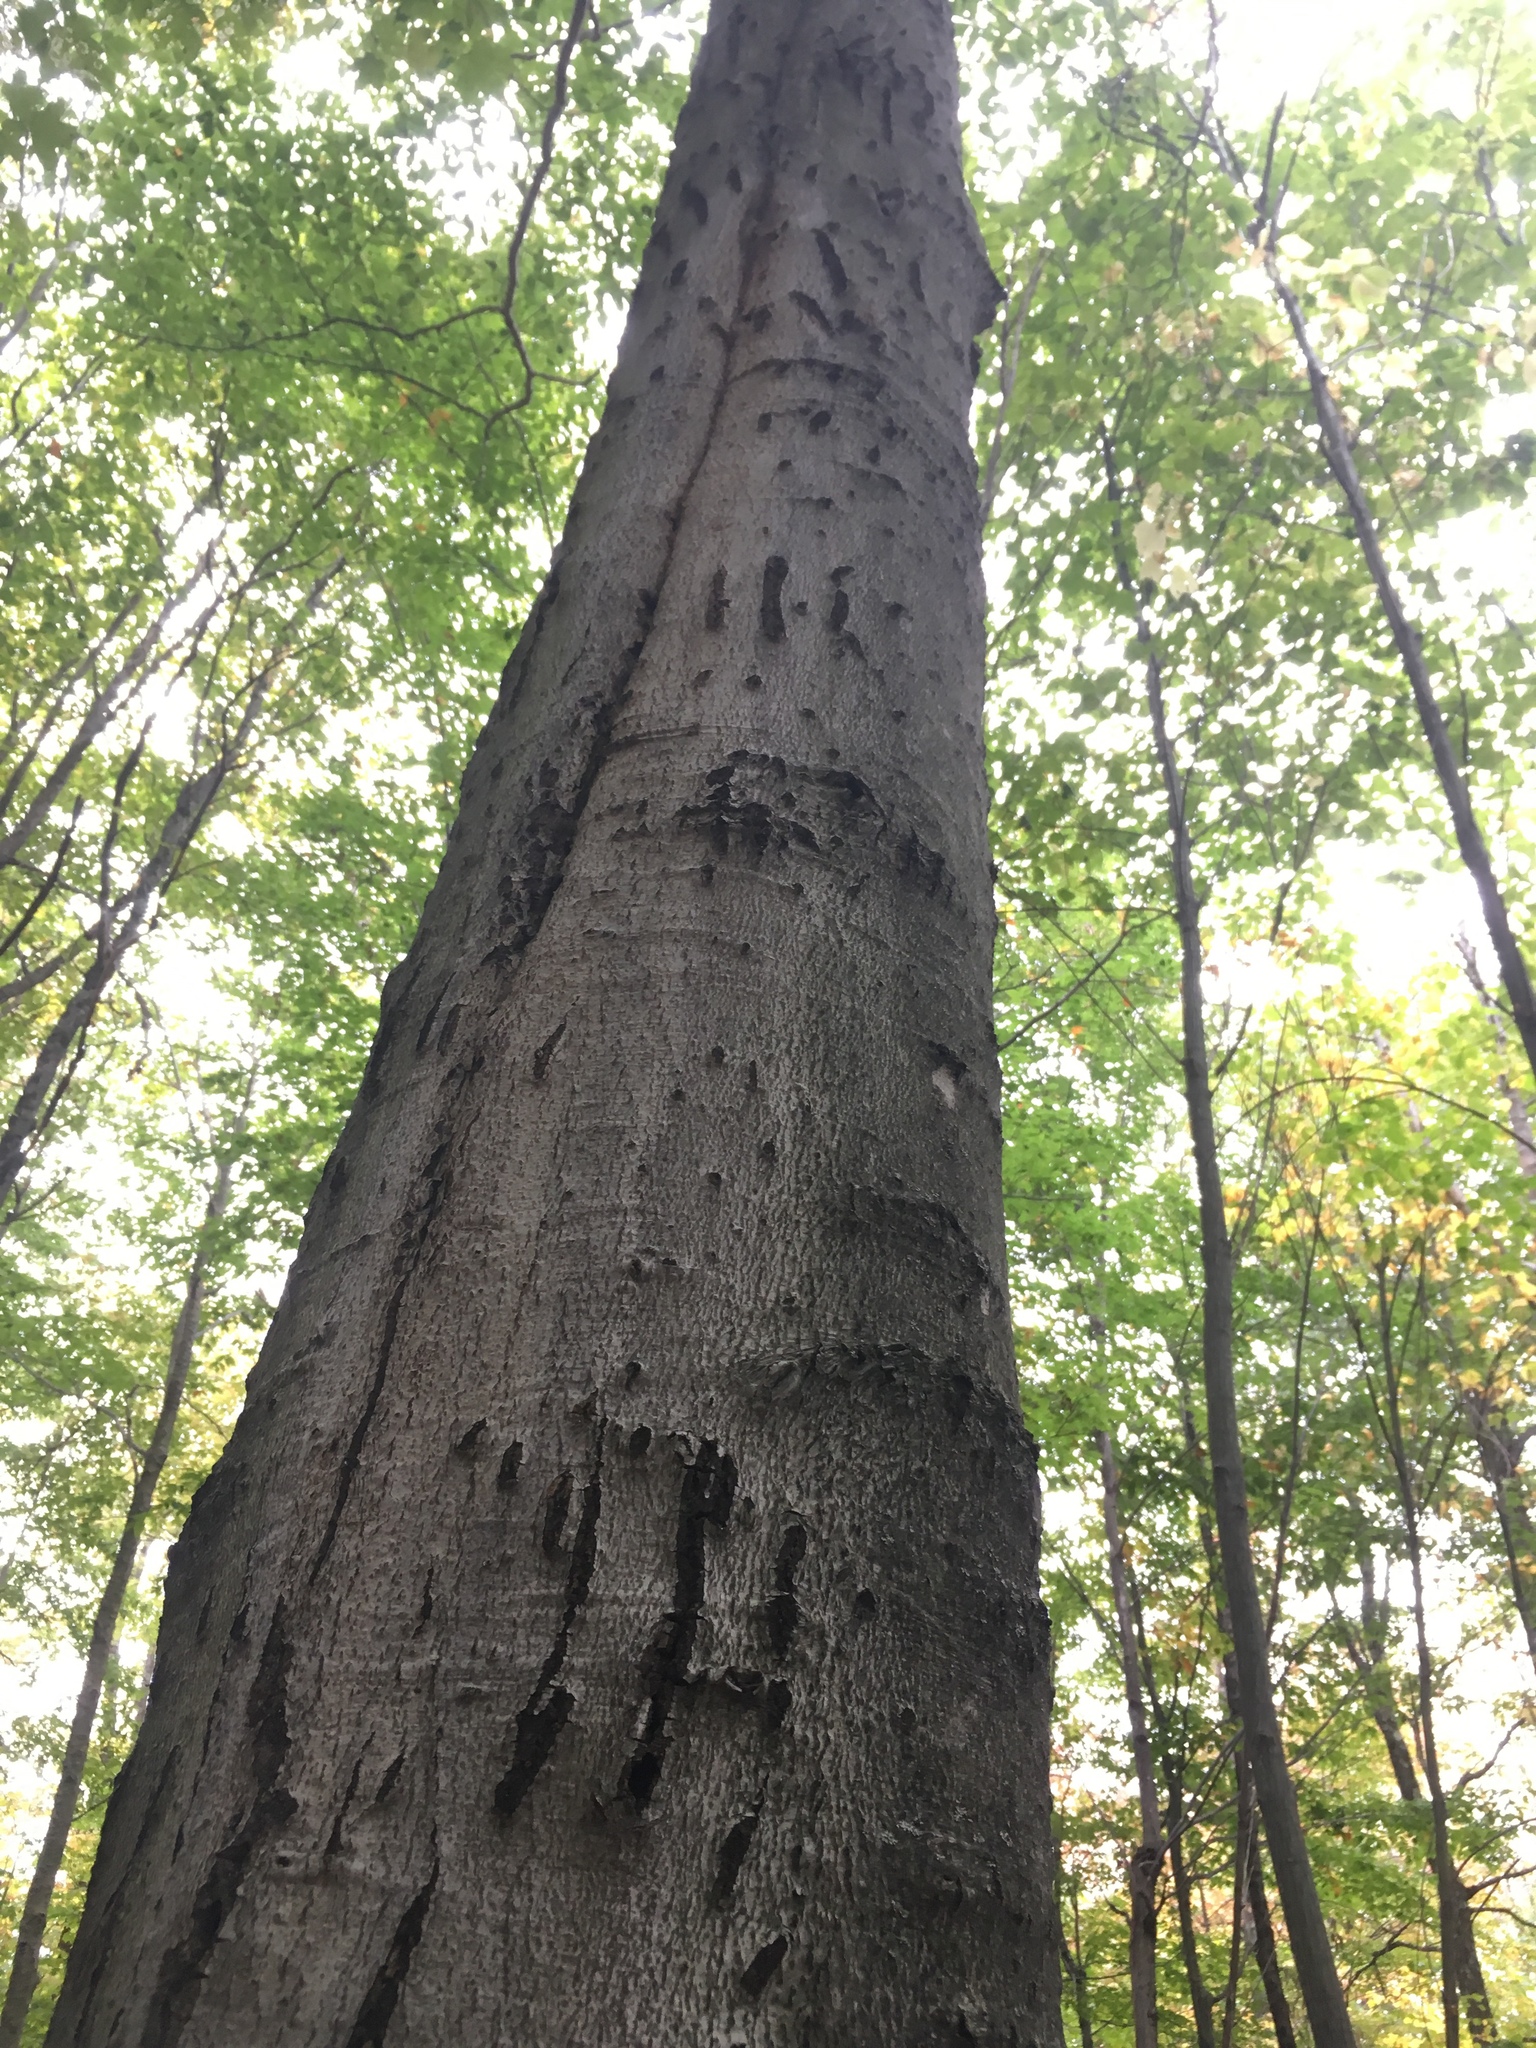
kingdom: Animalia
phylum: Chordata
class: Mammalia
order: Carnivora
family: Ursidae
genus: Ursus
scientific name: Ursus americanus
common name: American black bear
